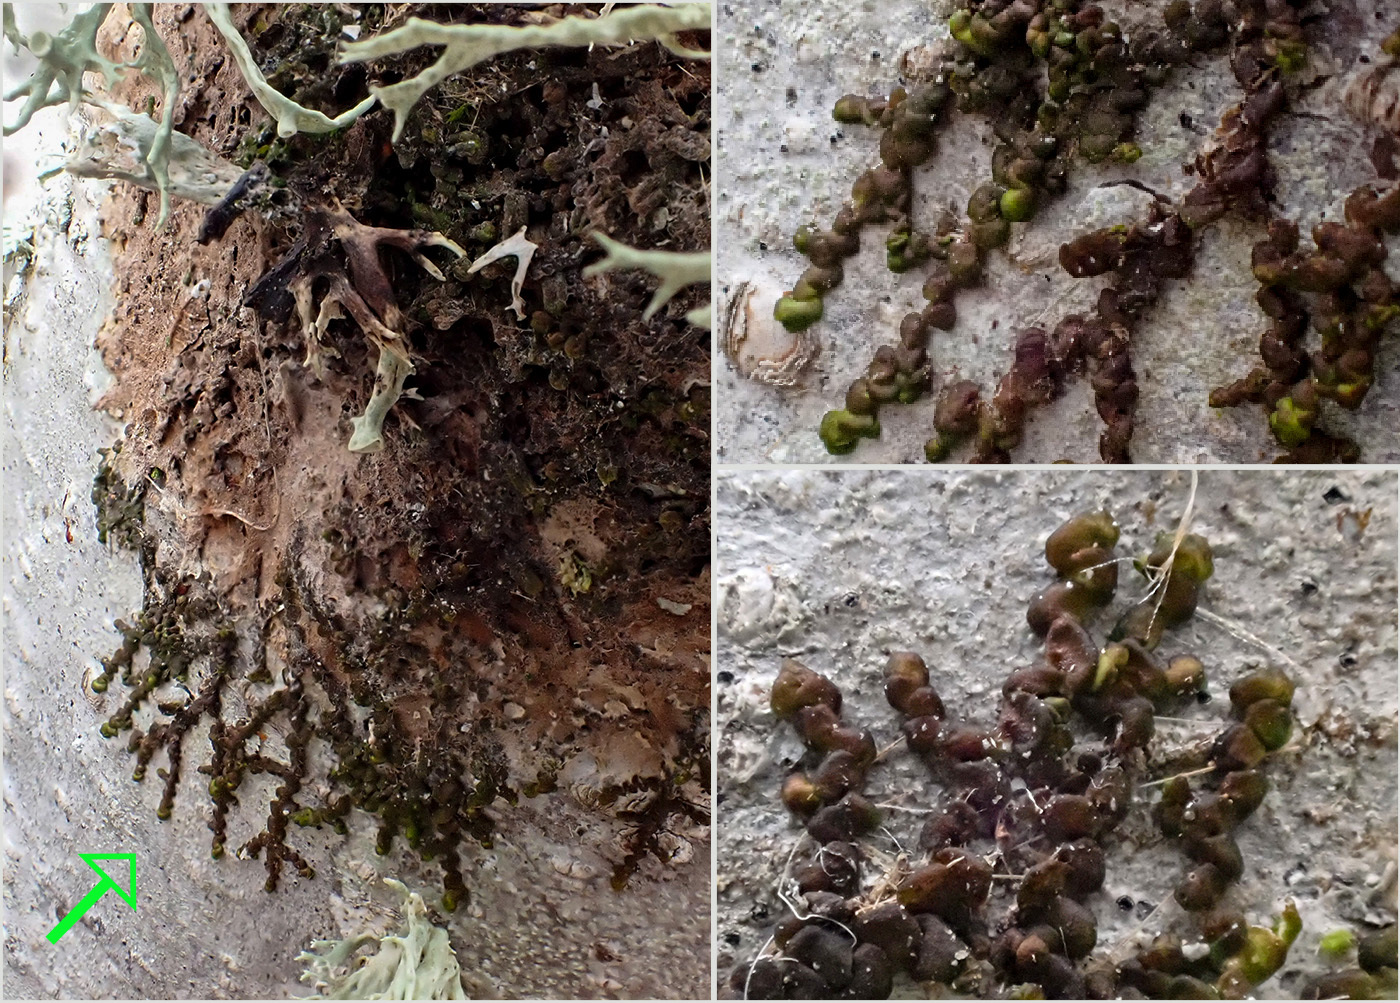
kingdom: Plantae
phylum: Marchantiophyta
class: Jungermanniopsida
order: Porellales
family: Frullaniaceae
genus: Frullania
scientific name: Frullania dilatata
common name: Dilated scalewort
